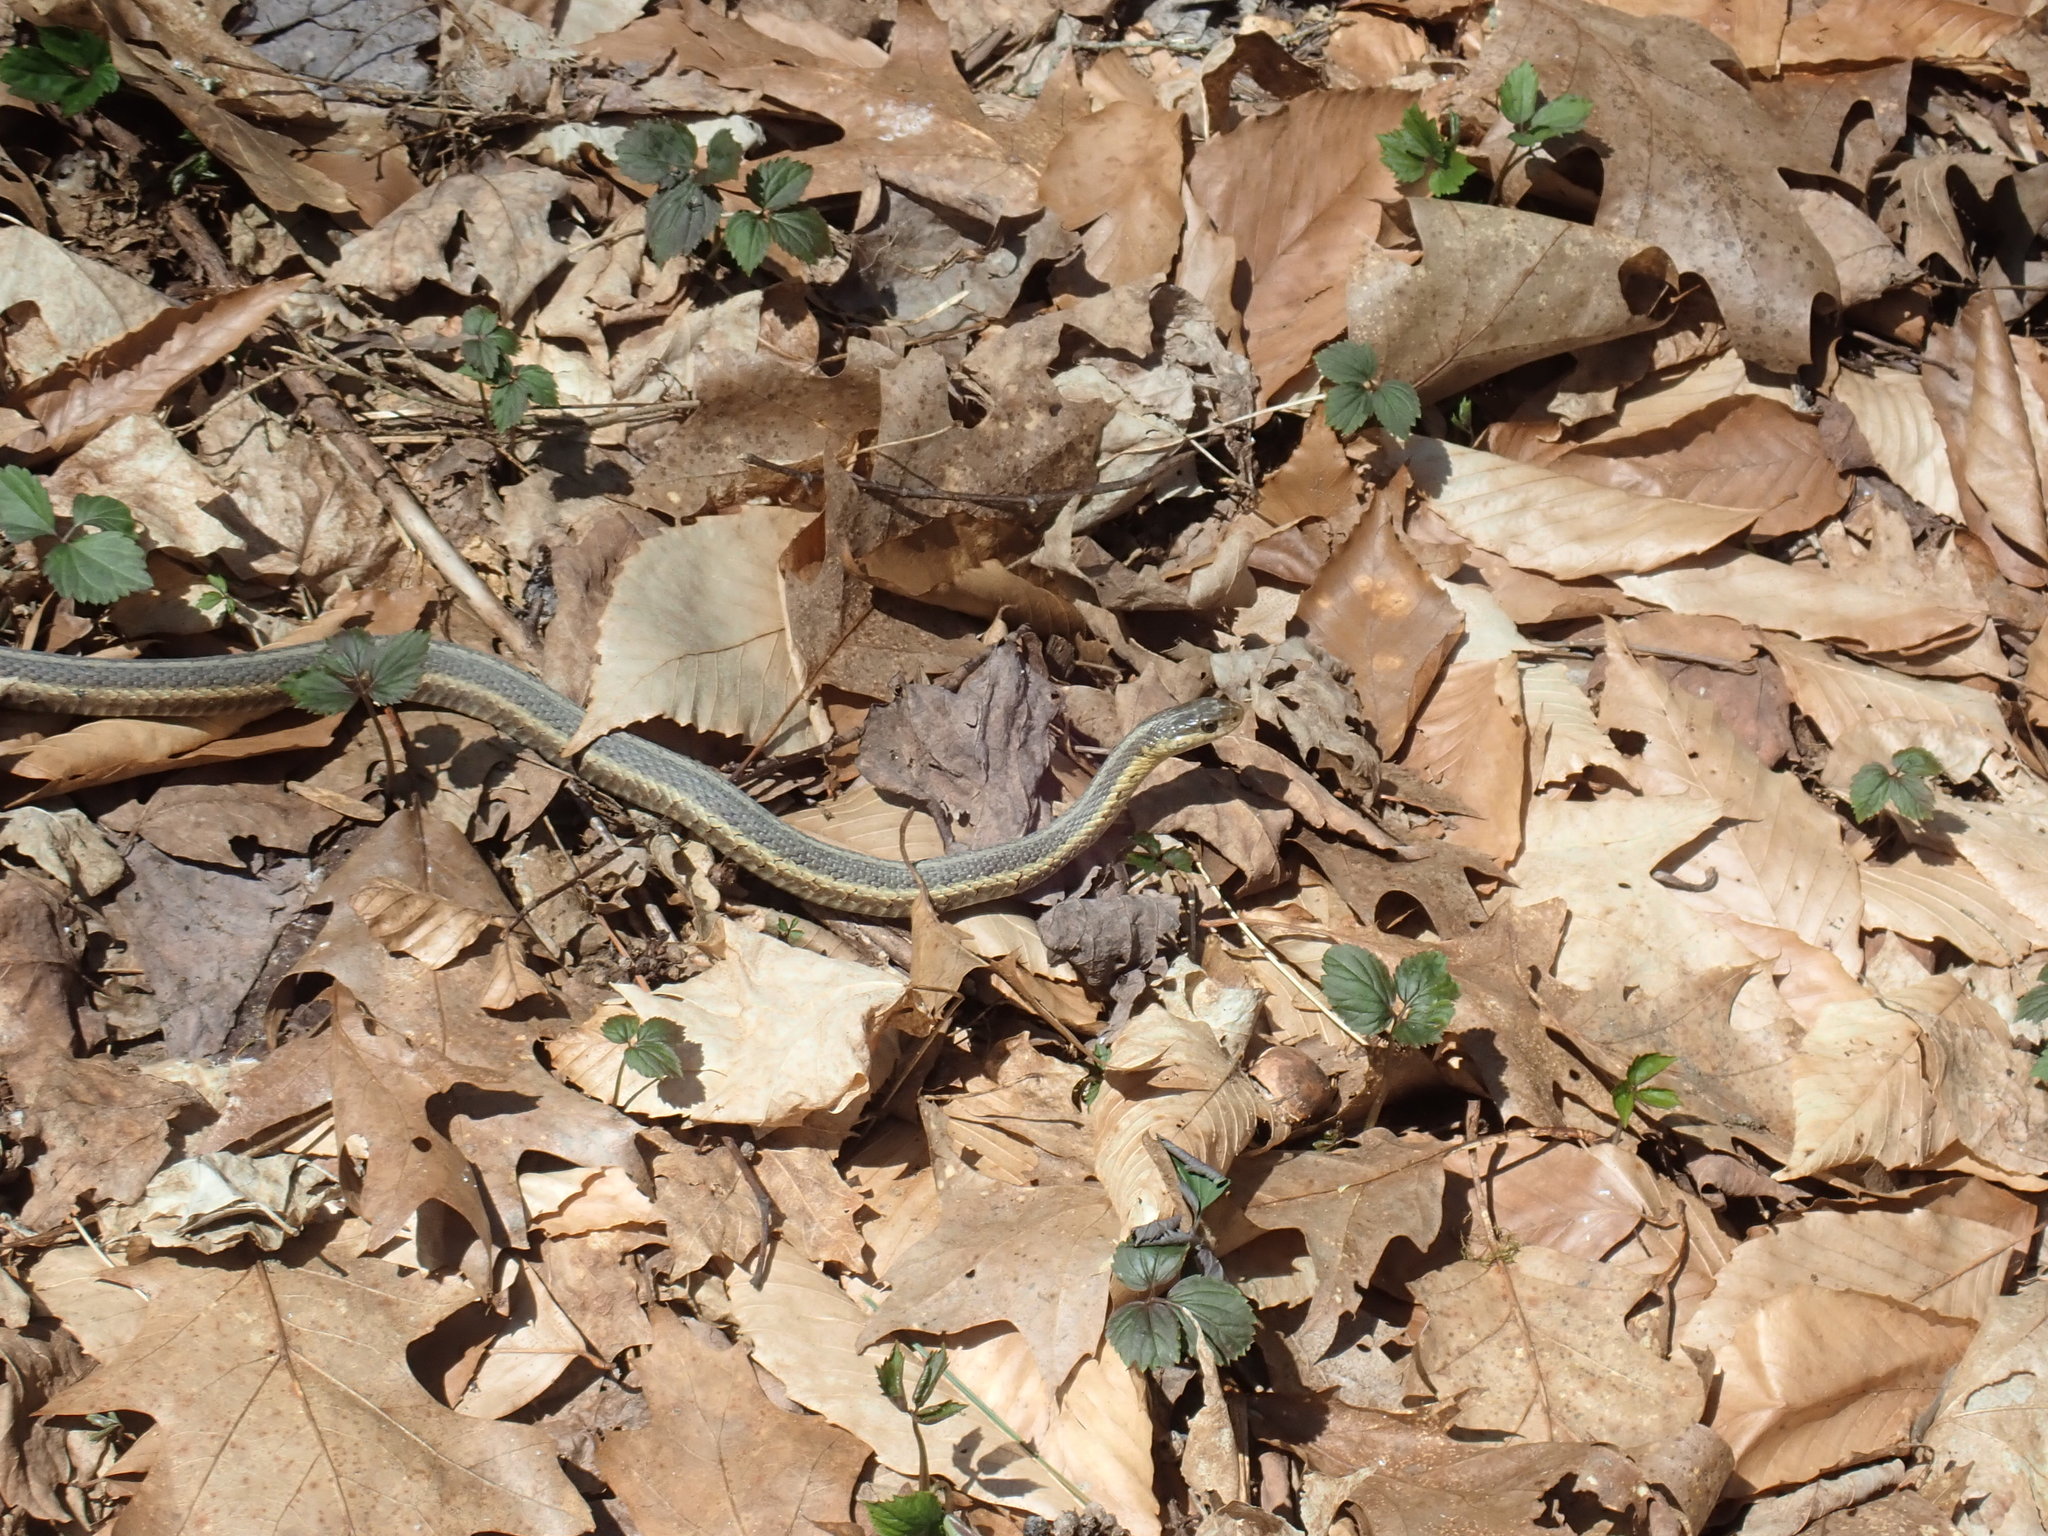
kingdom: Animalia
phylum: Chordata
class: Squamata
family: Colubridae
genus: Thamnophis
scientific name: Thamnophis sirtalis
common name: Common garter snake
